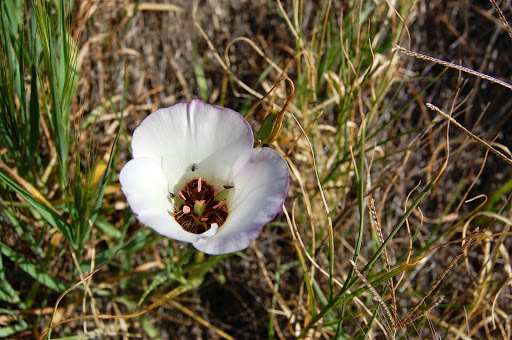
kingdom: Plantae
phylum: Tracheophyta
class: Liliopsida
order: Liliales
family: Liliaceae
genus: Calochortus
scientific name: Calochortus catalinae
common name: Catalina mariposa-lily
